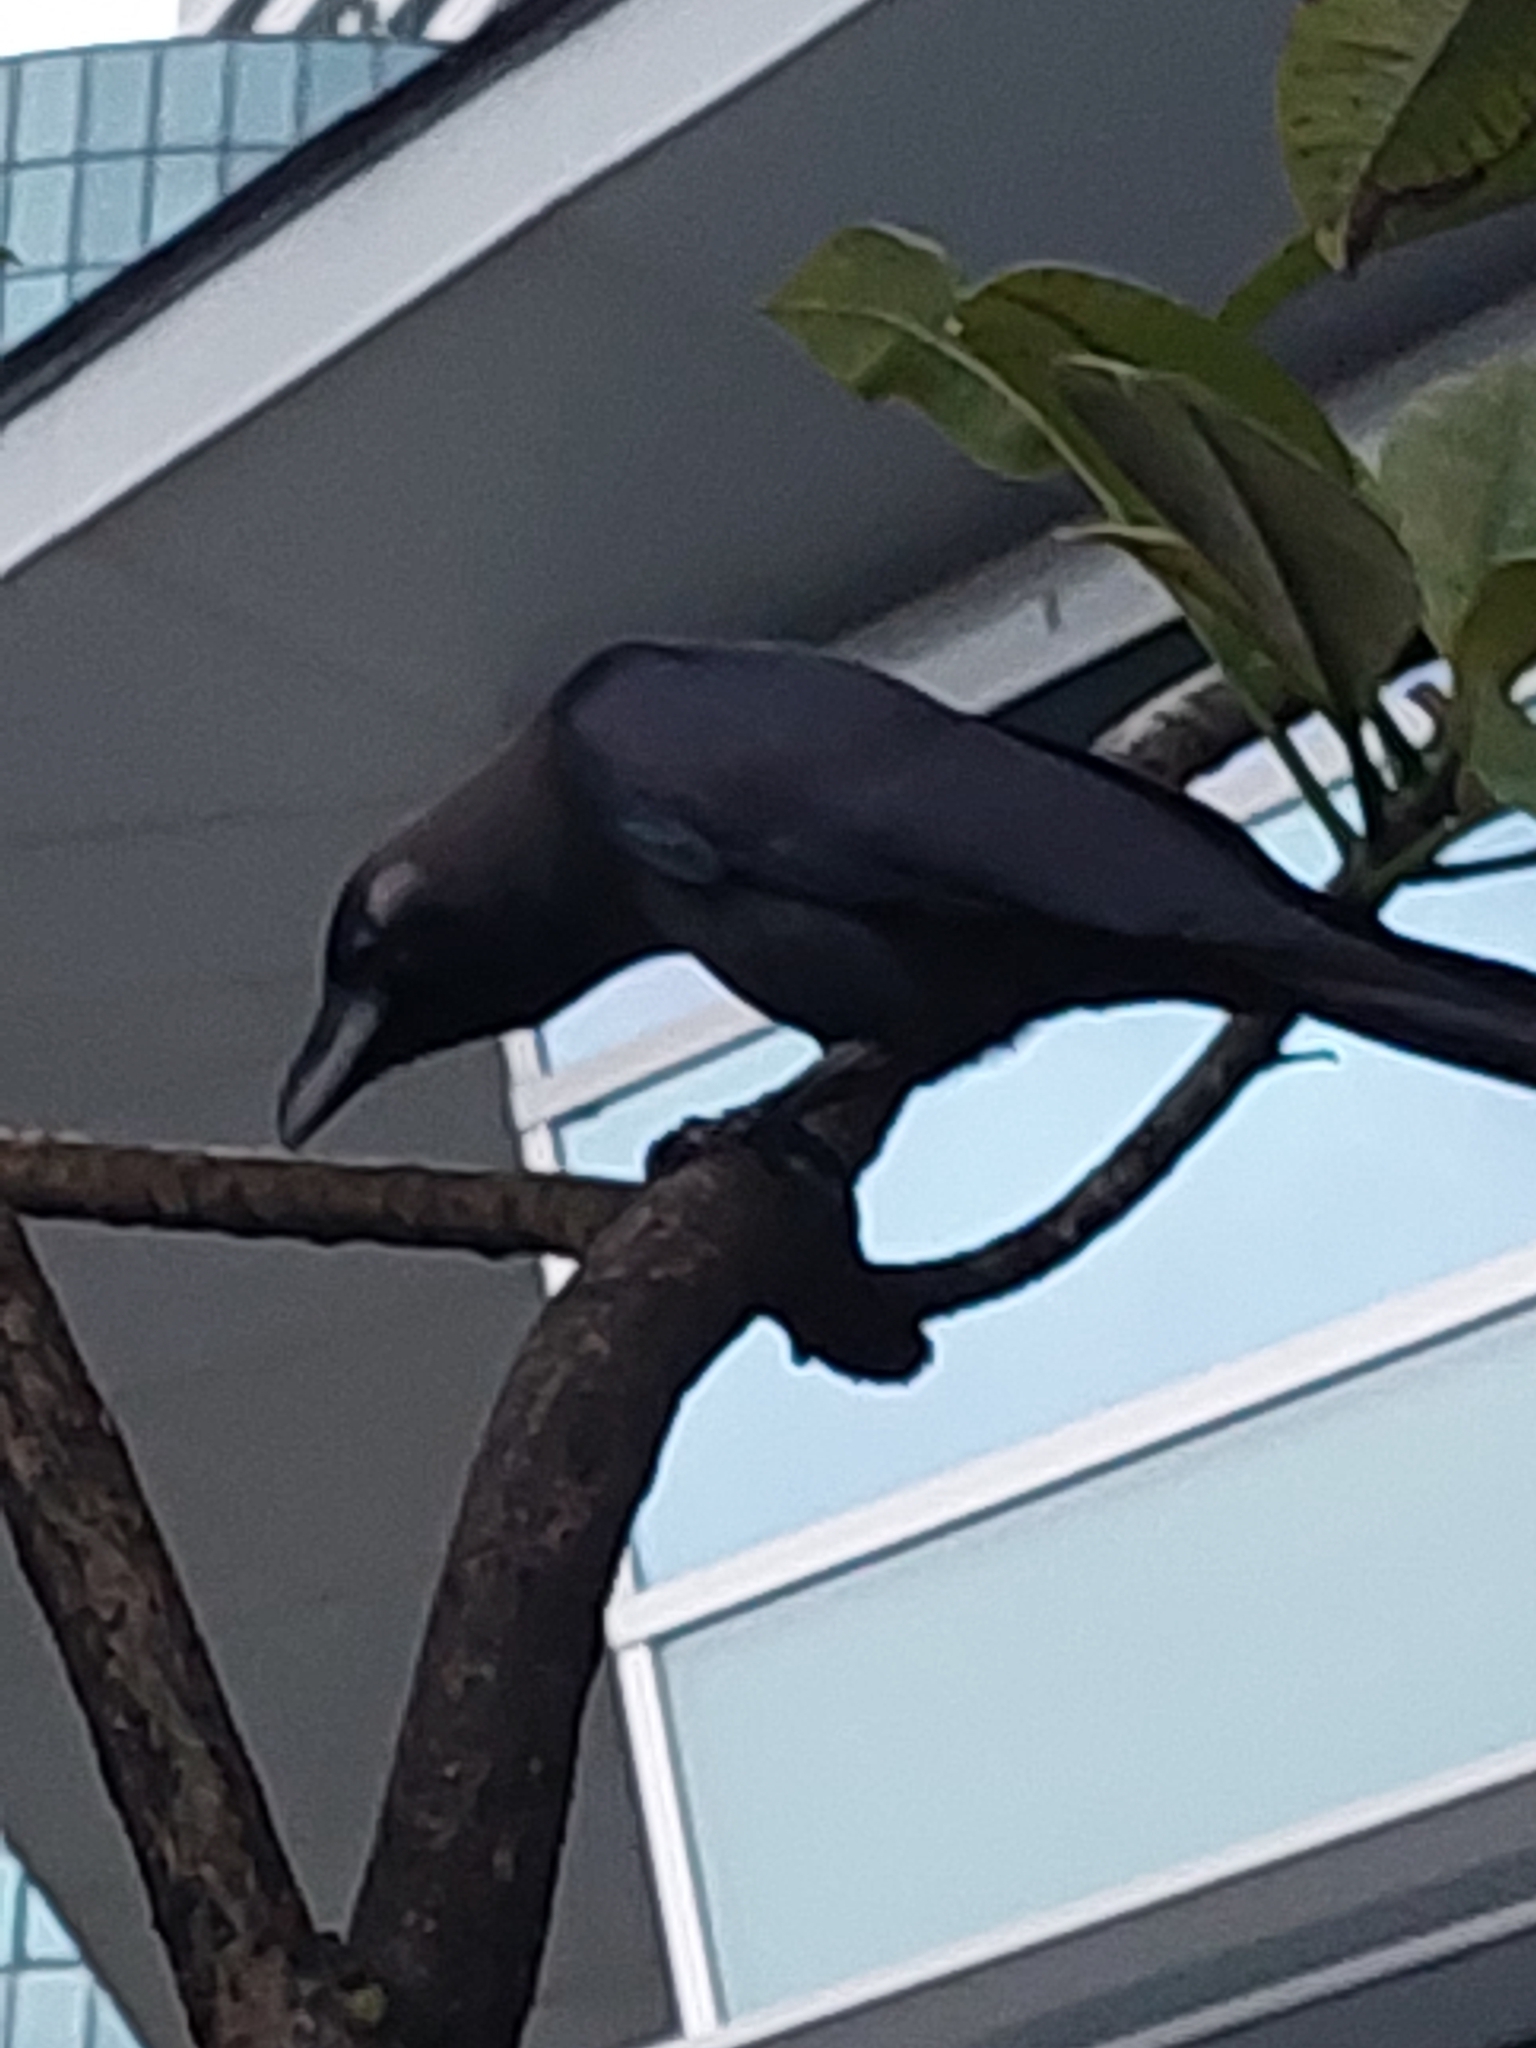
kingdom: Animalia
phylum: Chordata
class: Aves
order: Passeriformes
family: Corvidae
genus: Corvus
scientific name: Corvus splendens
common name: House crow
